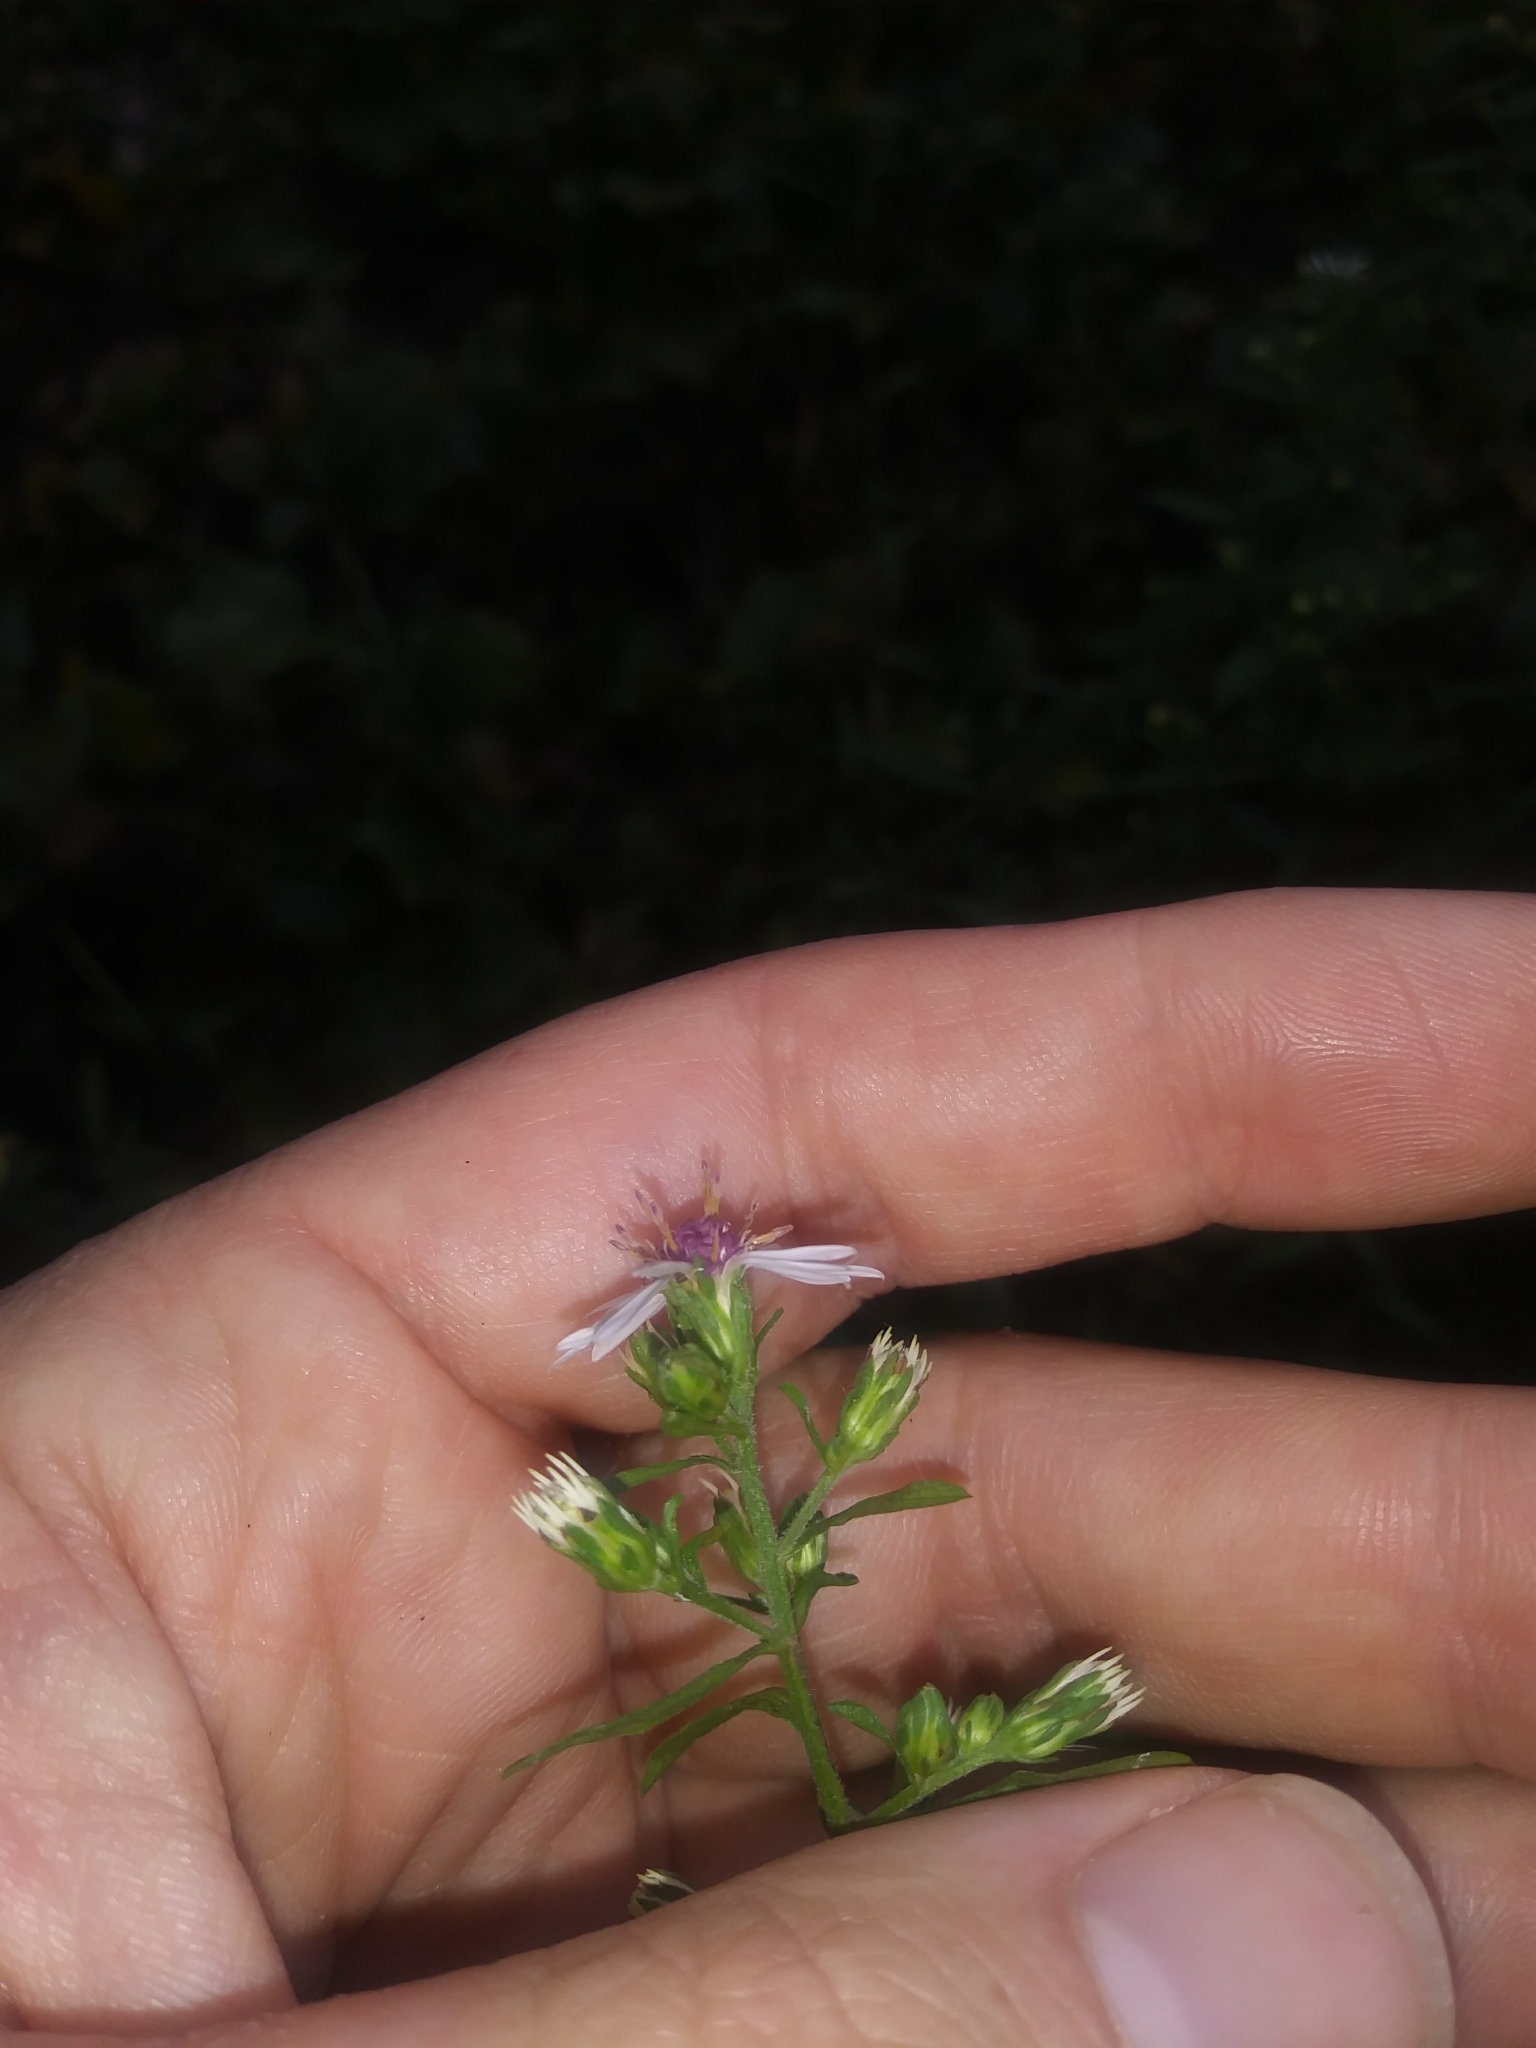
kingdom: Plantae
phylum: Tracheophyta
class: Magnoliopsida
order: Asterales
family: Asteraceae
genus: Symphyotrichum
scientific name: Symphyotrichum lateriflorum
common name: Calico aster
